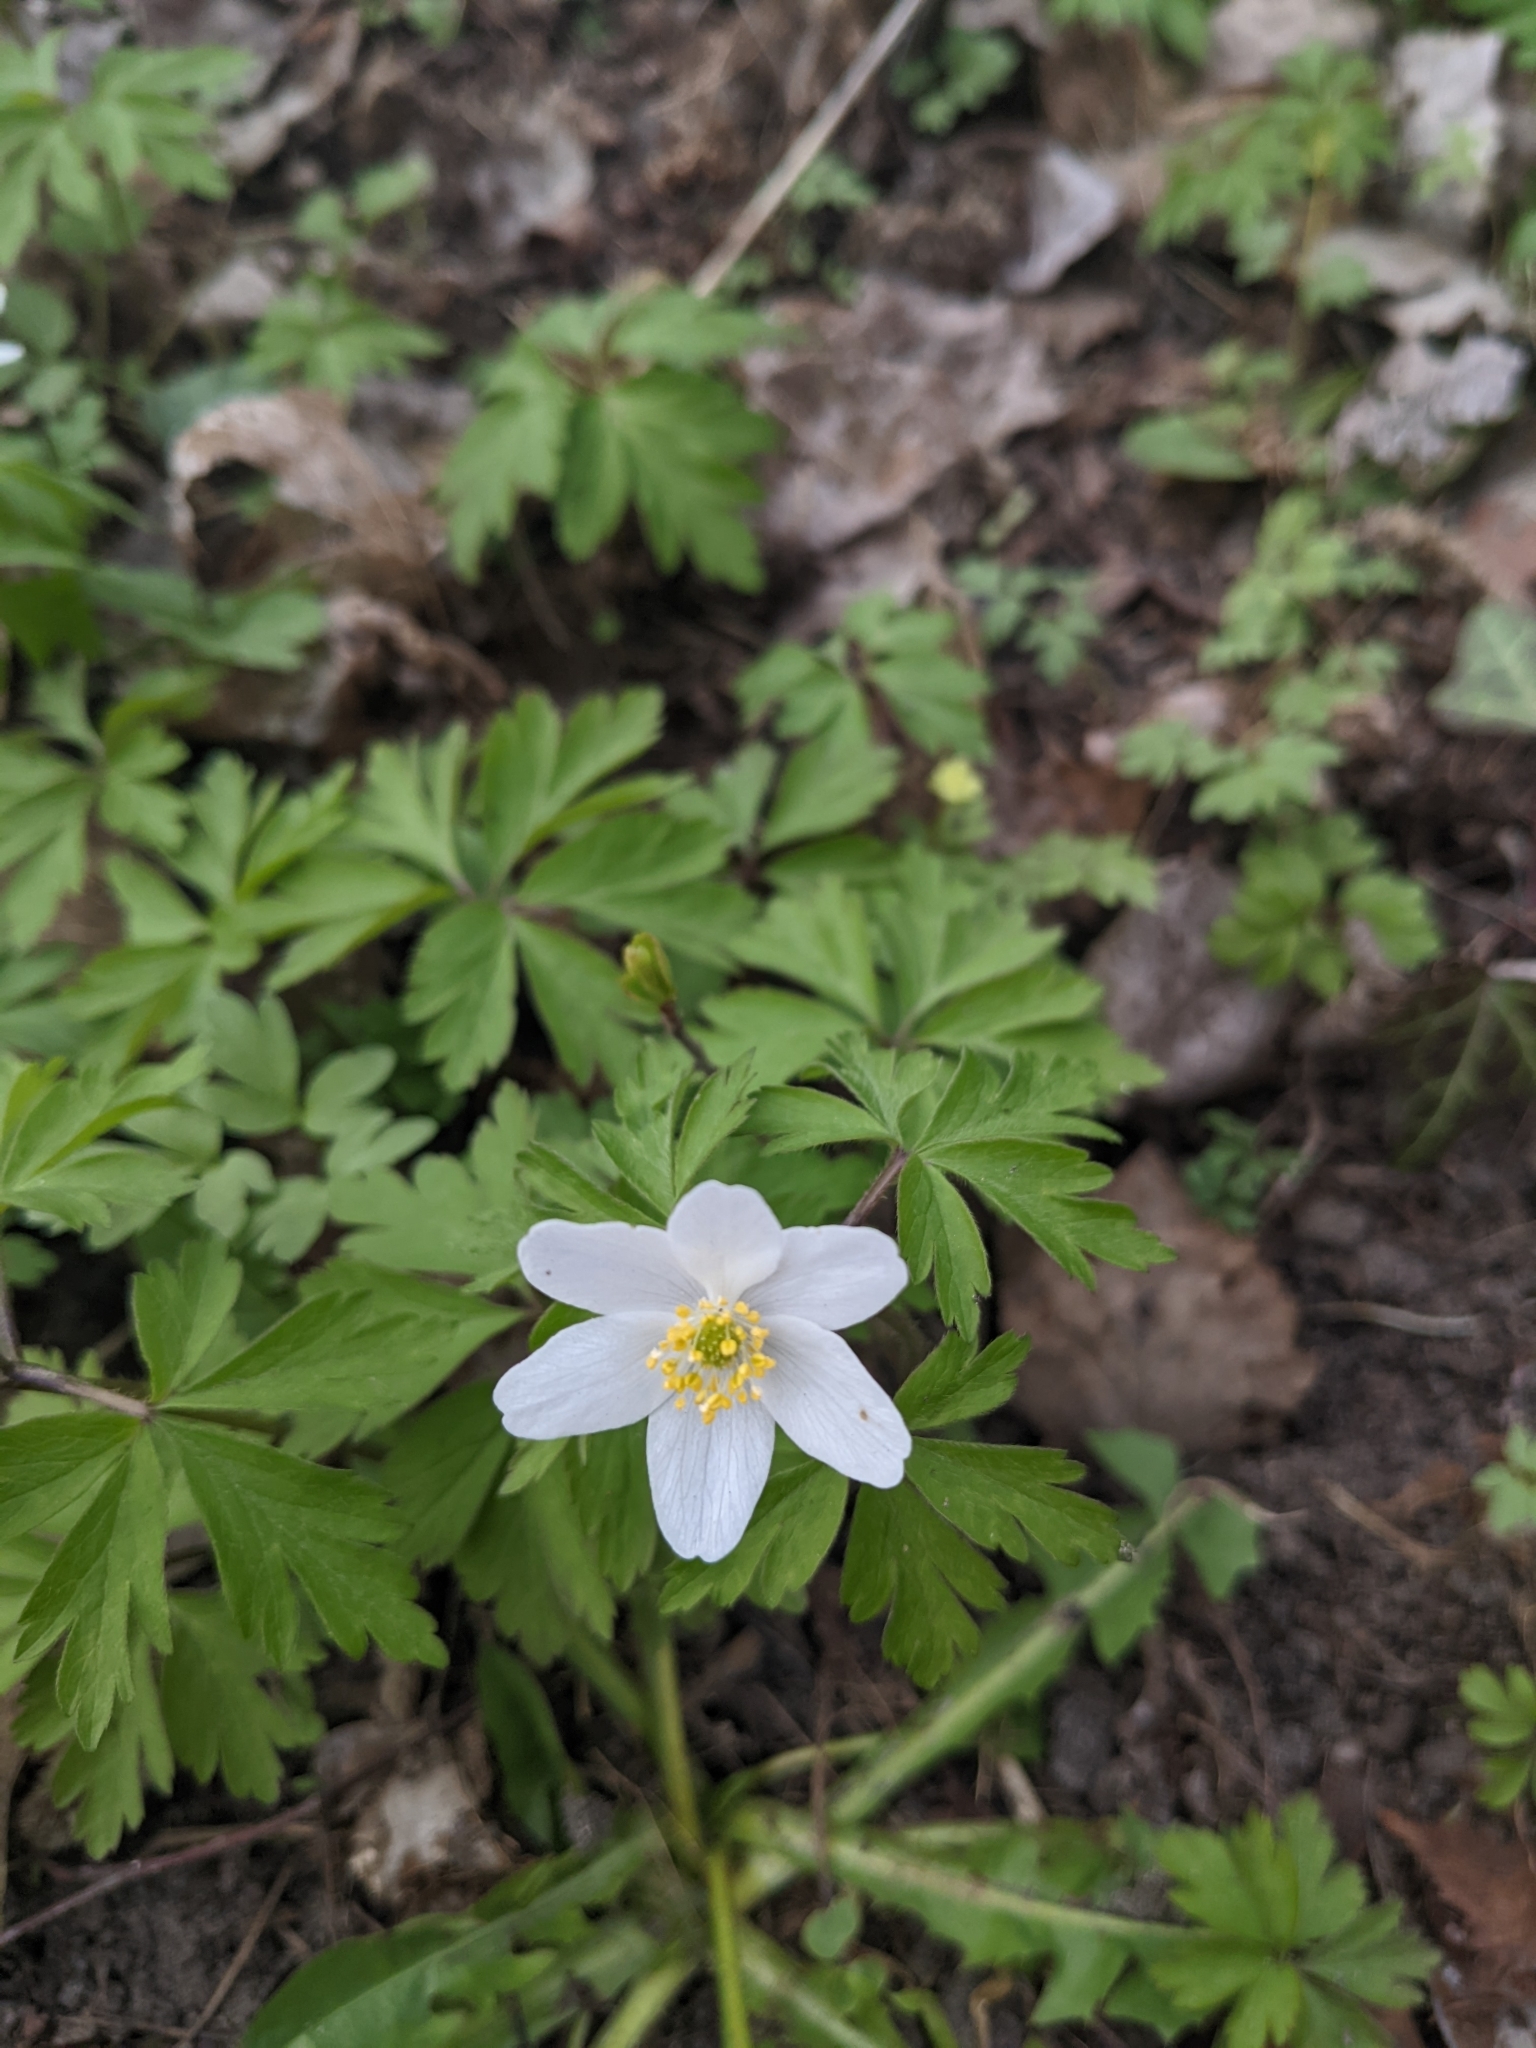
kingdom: Plantae
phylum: Tracheophyta
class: Magnoliopsida
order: Ranunculales
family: Ranunculaceae
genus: Anemone
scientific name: Anemone nemorosa
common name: Wood anemone
